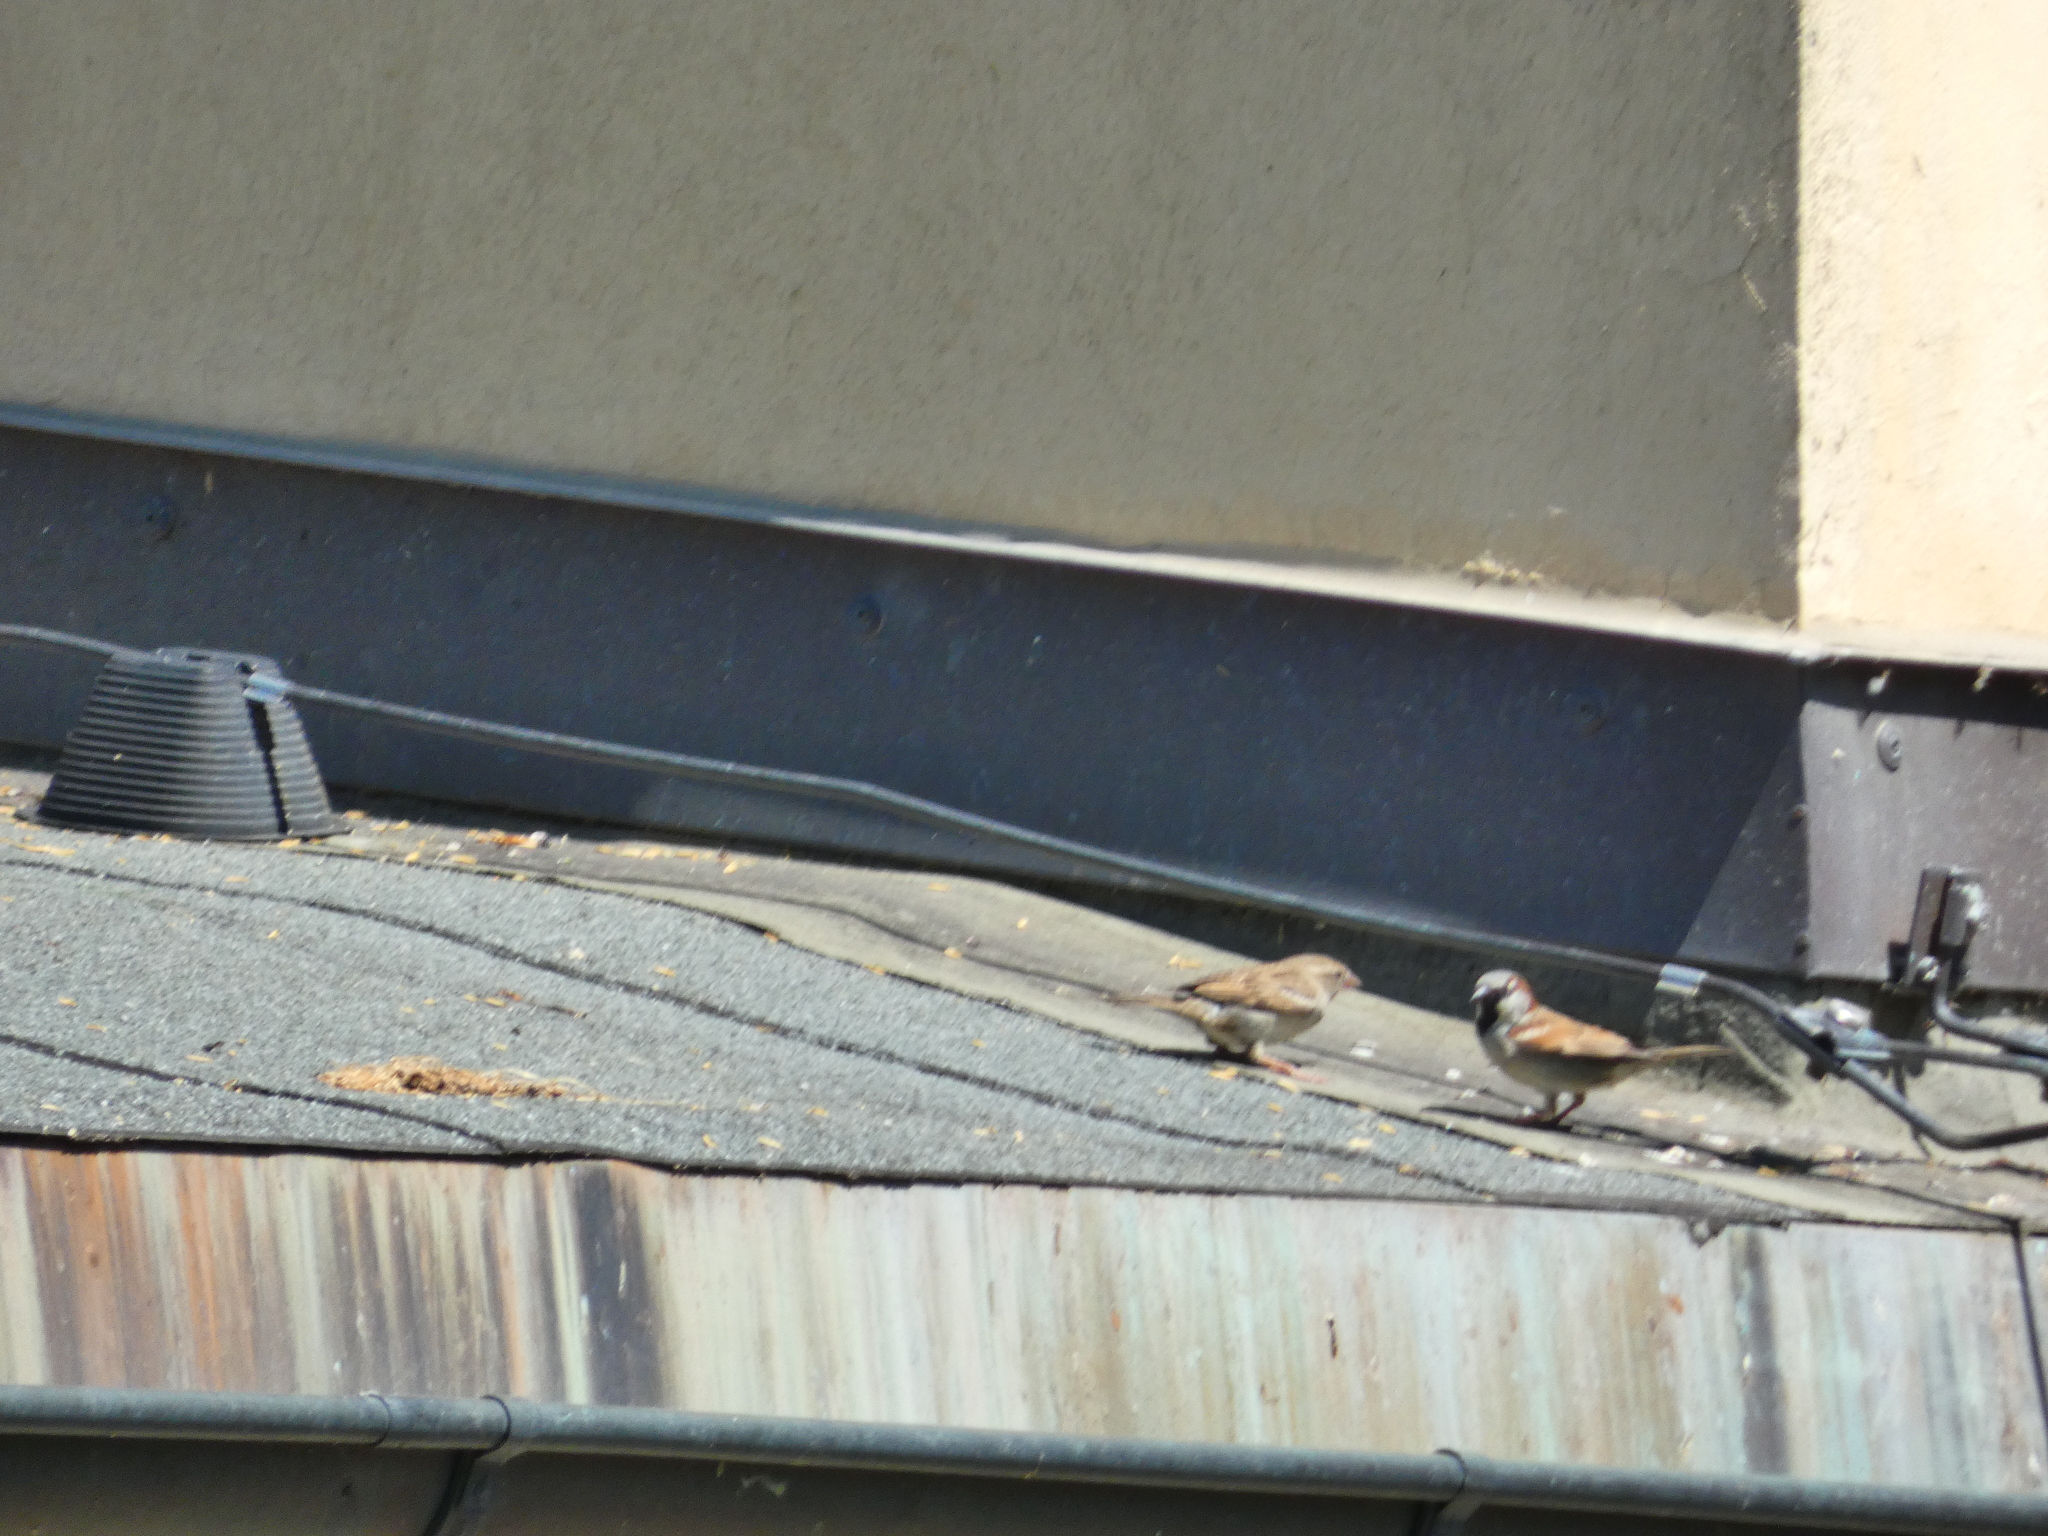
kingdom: Animalia
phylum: Chordata
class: Aves
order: Passeriformes
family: Passeridae
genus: Passer
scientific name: Passer domesticus
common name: House sparrow
